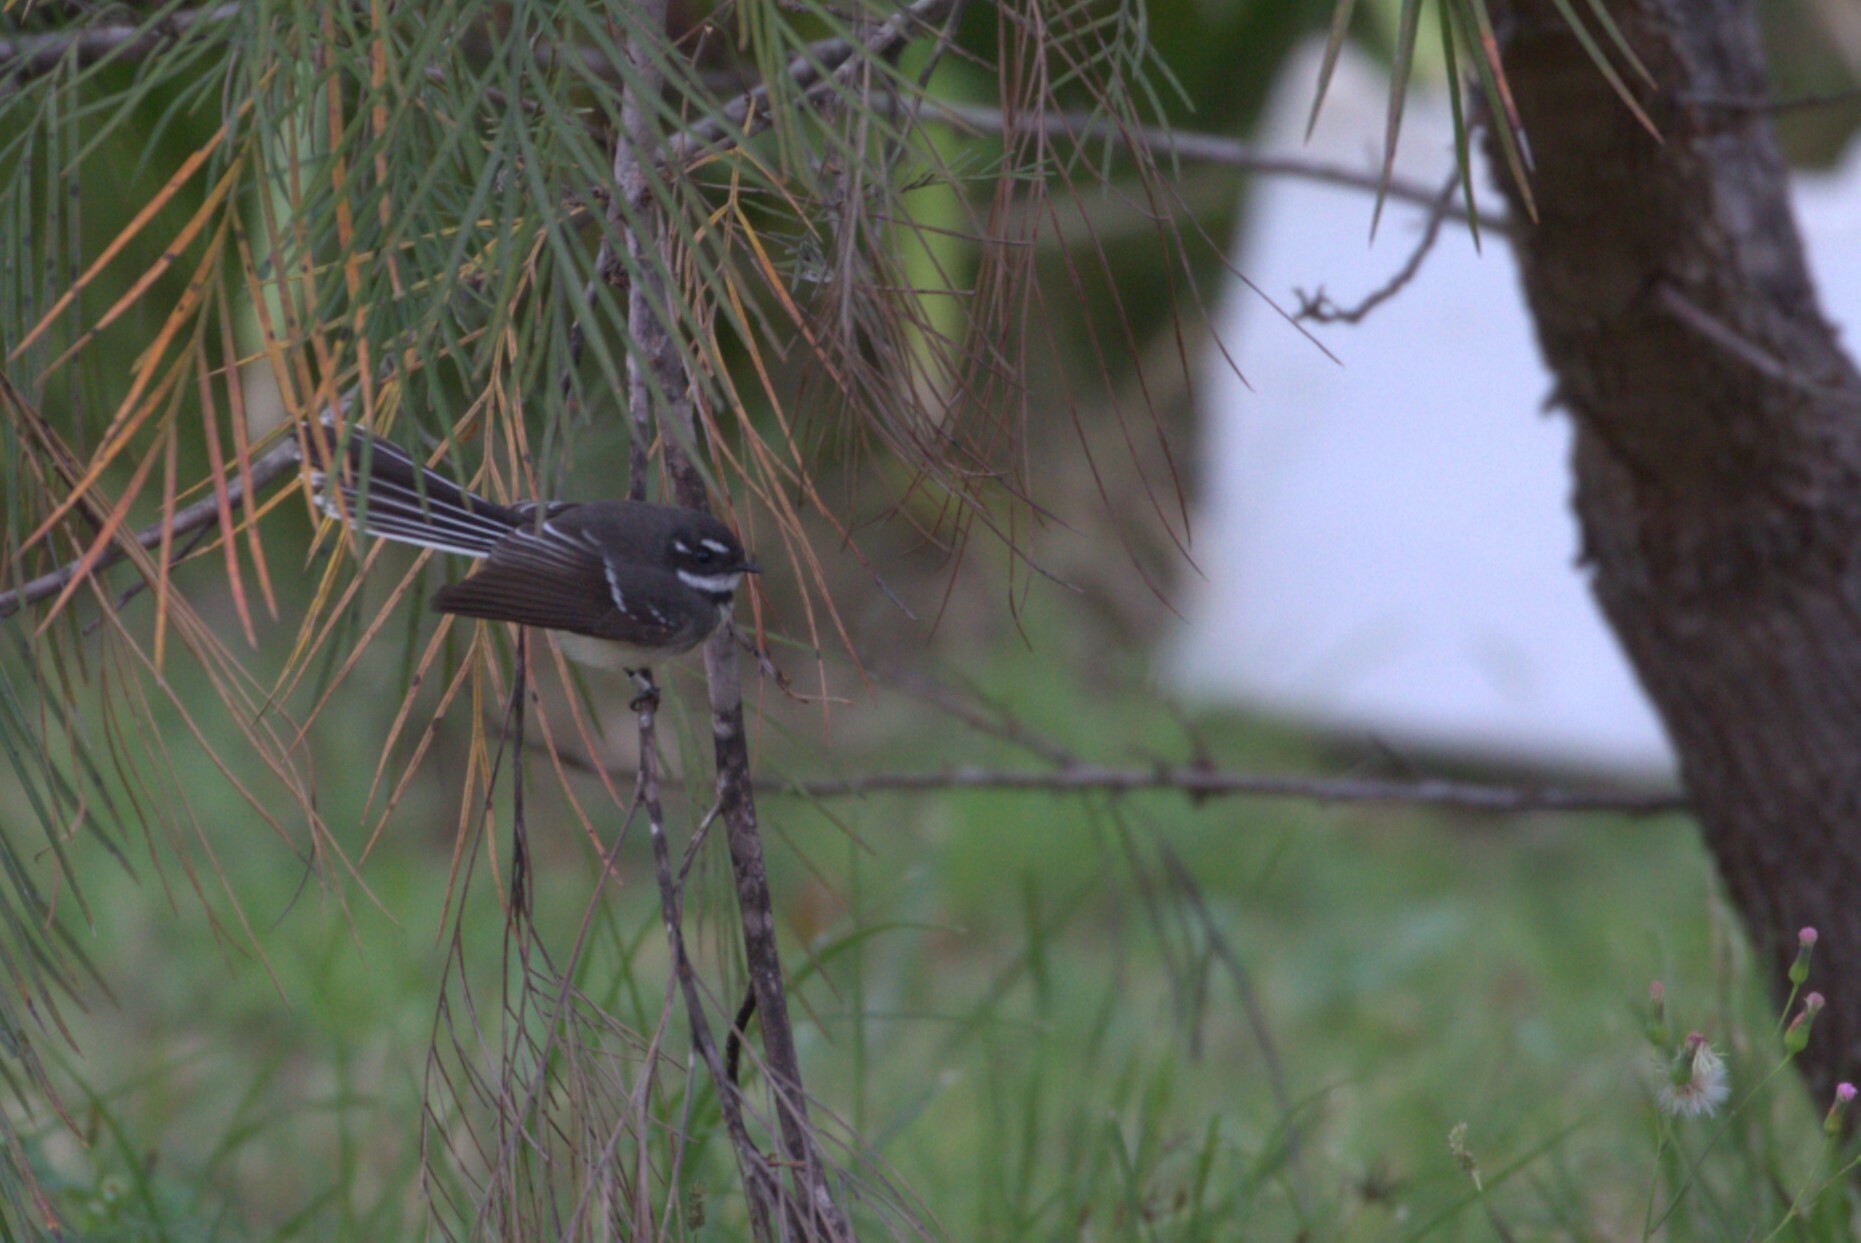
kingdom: Animalia
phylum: Chordata
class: Aves
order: Passeriformes
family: Rhipiduridae
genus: Rhipidura
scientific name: Rhipidura albiscapa
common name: Grey fantail
